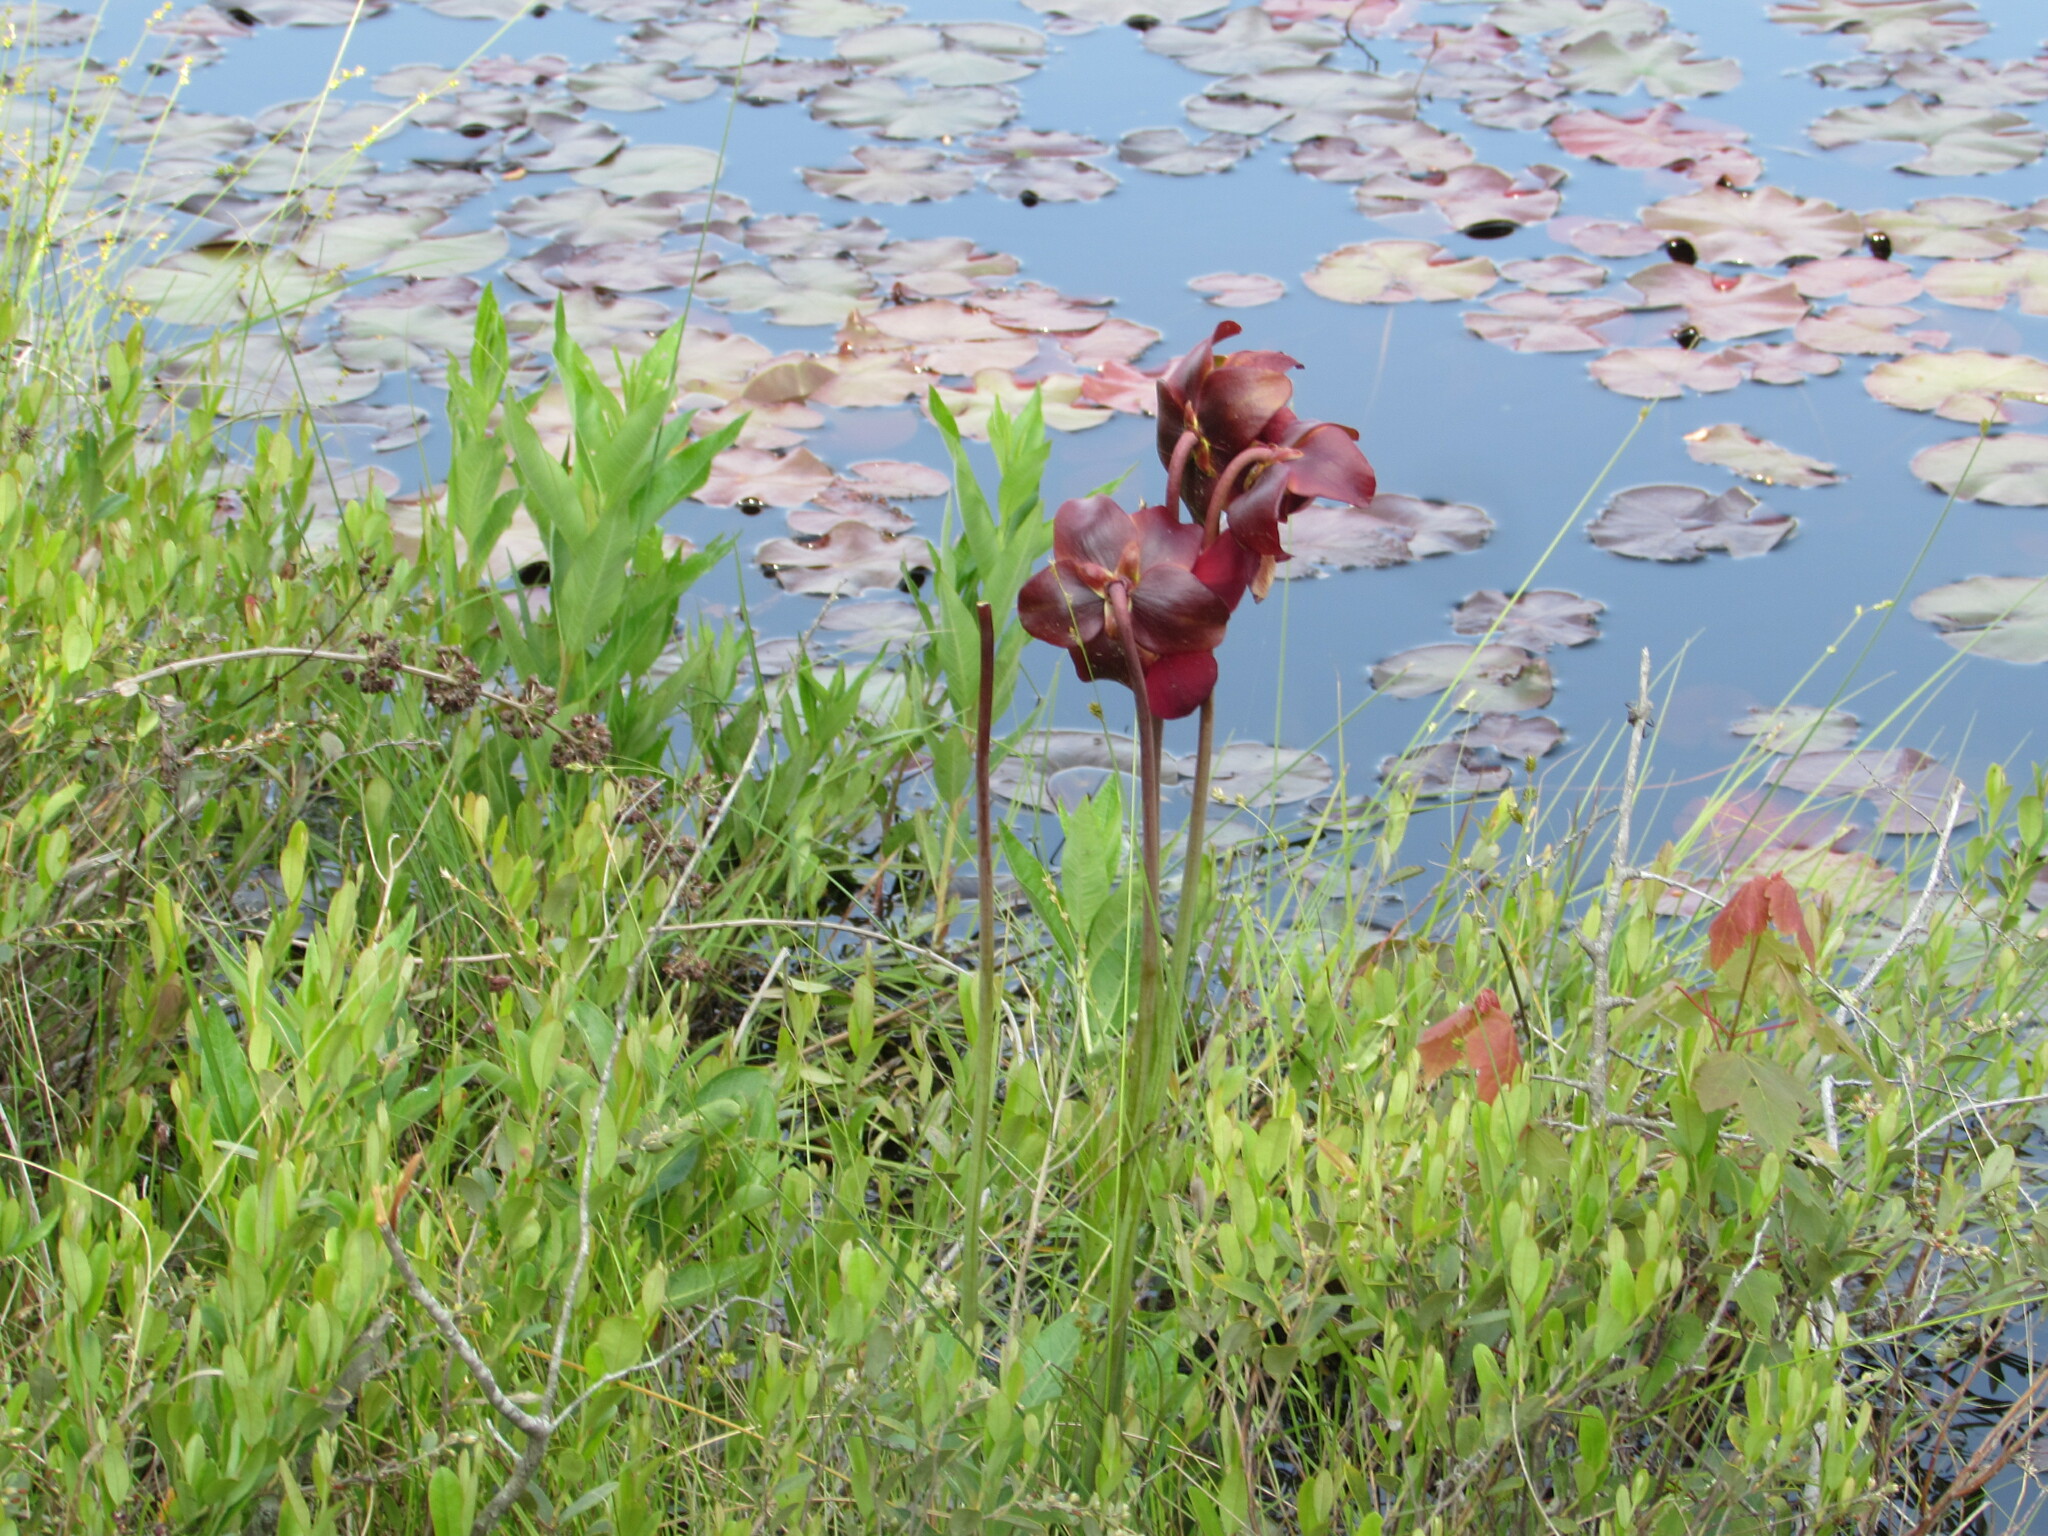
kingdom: Plantae
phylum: Tracheophyta
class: Magnoliopsida
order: Ericales
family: Sarraceniaceae
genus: Sarracenia
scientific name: Sarracenia purpurea
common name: Pitcherplant
